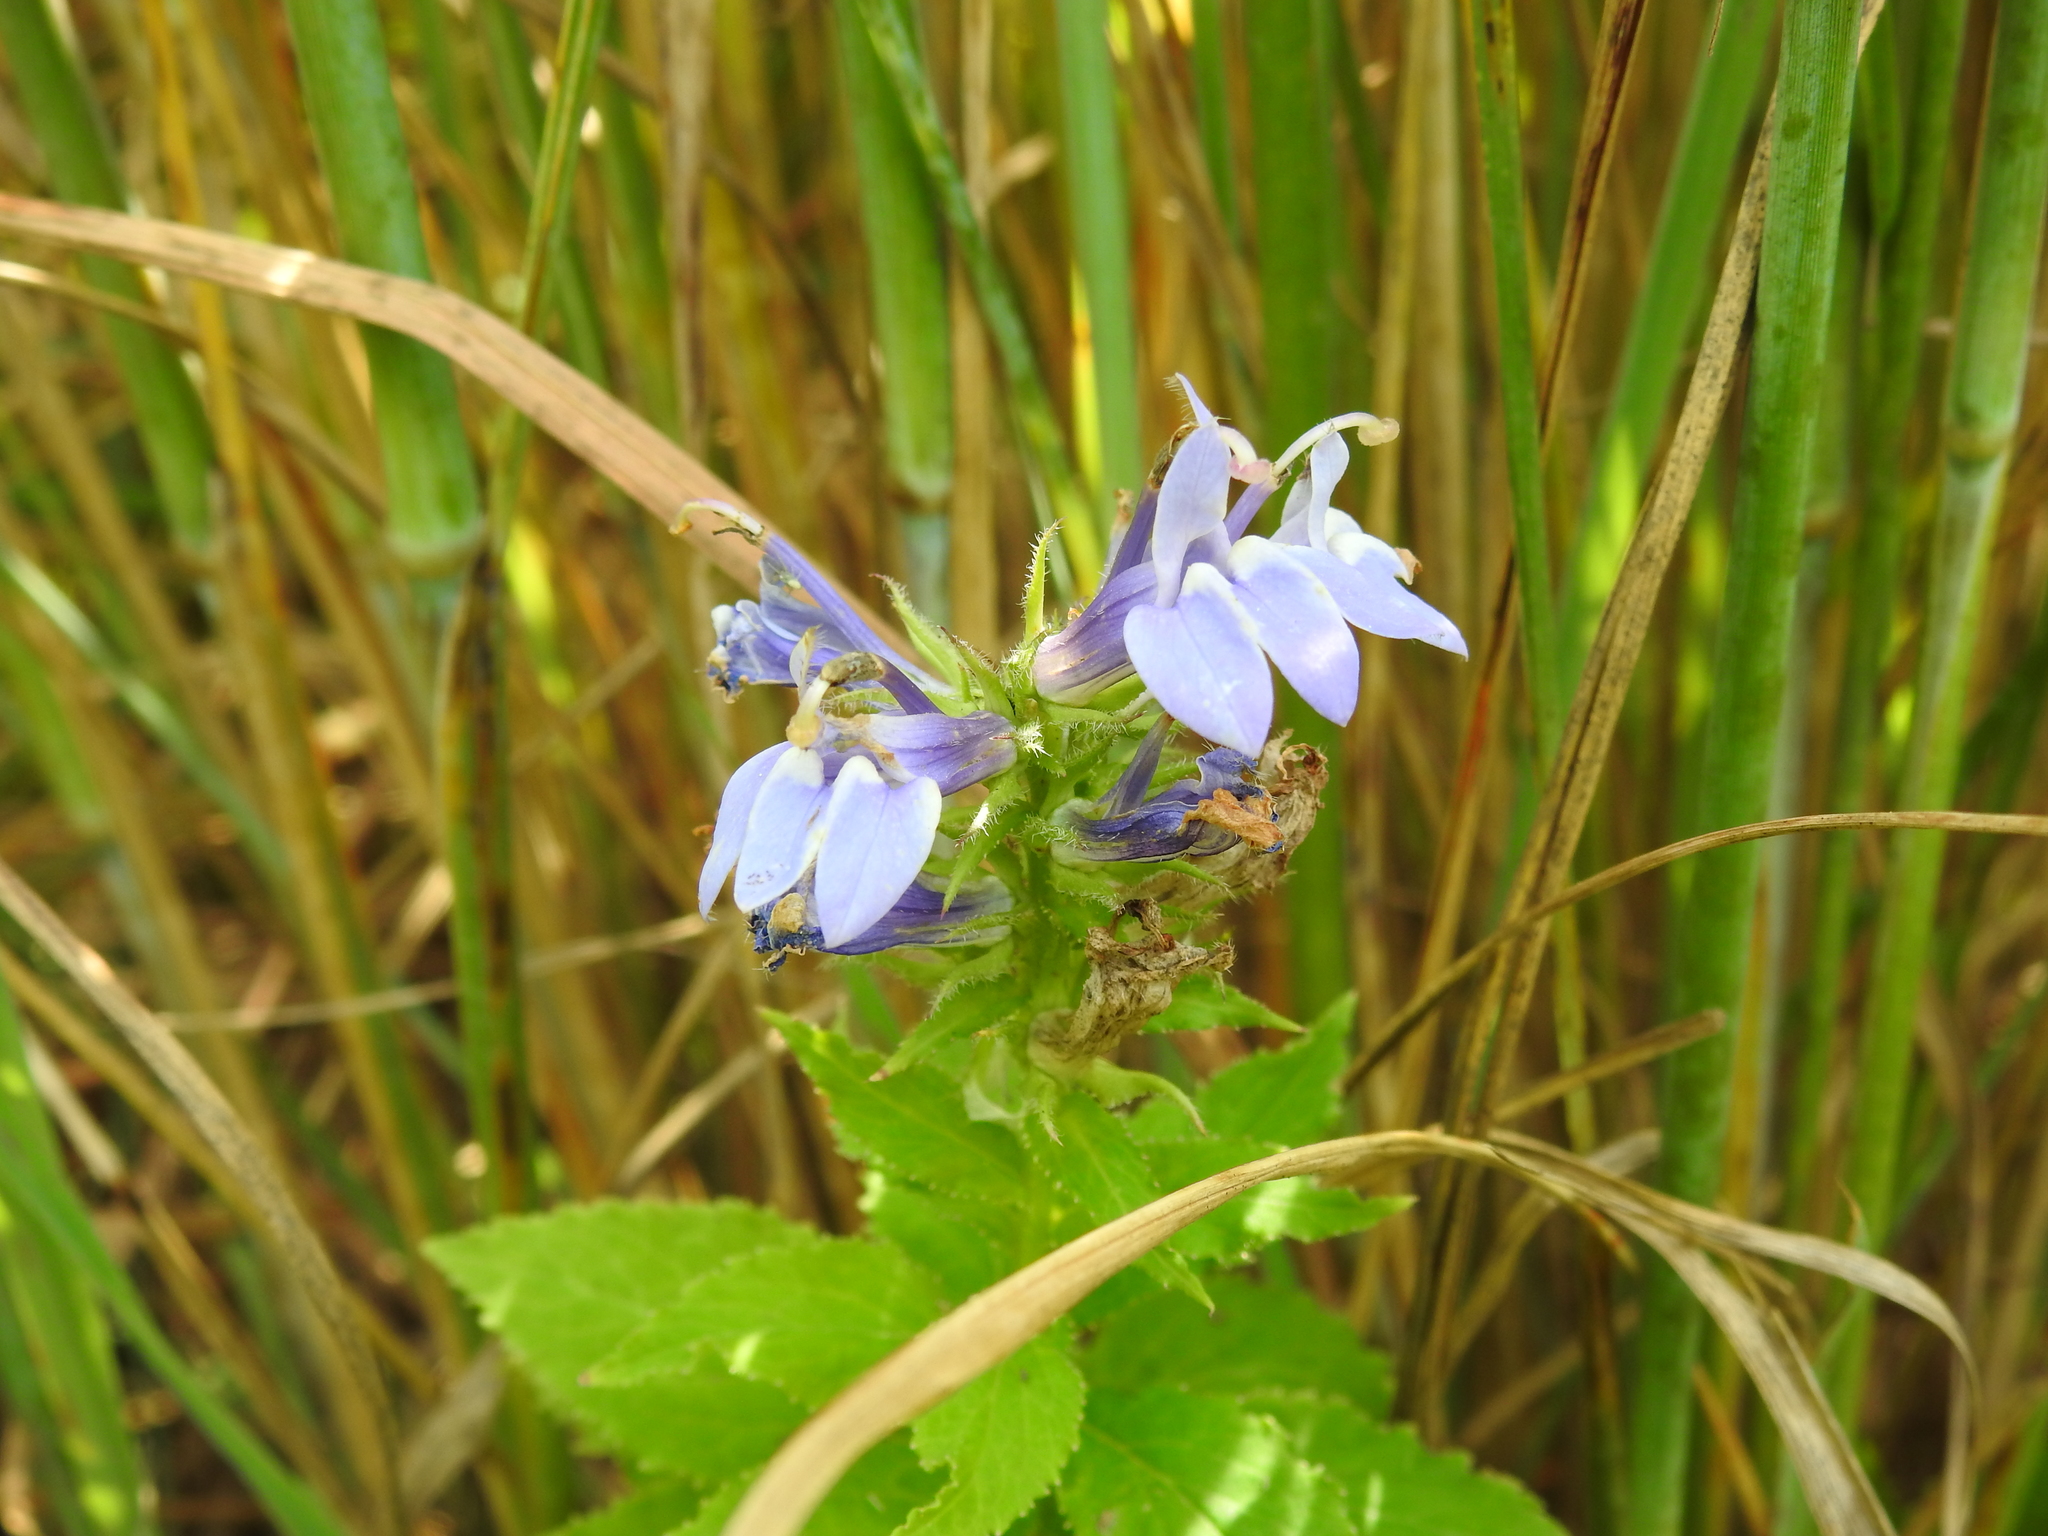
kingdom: Plantae
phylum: Tracheophyta
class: Magnoliopsida
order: Asterales
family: Campanulaceae
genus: Lobelia
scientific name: Lobelia siphilitica
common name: Great lobelia
